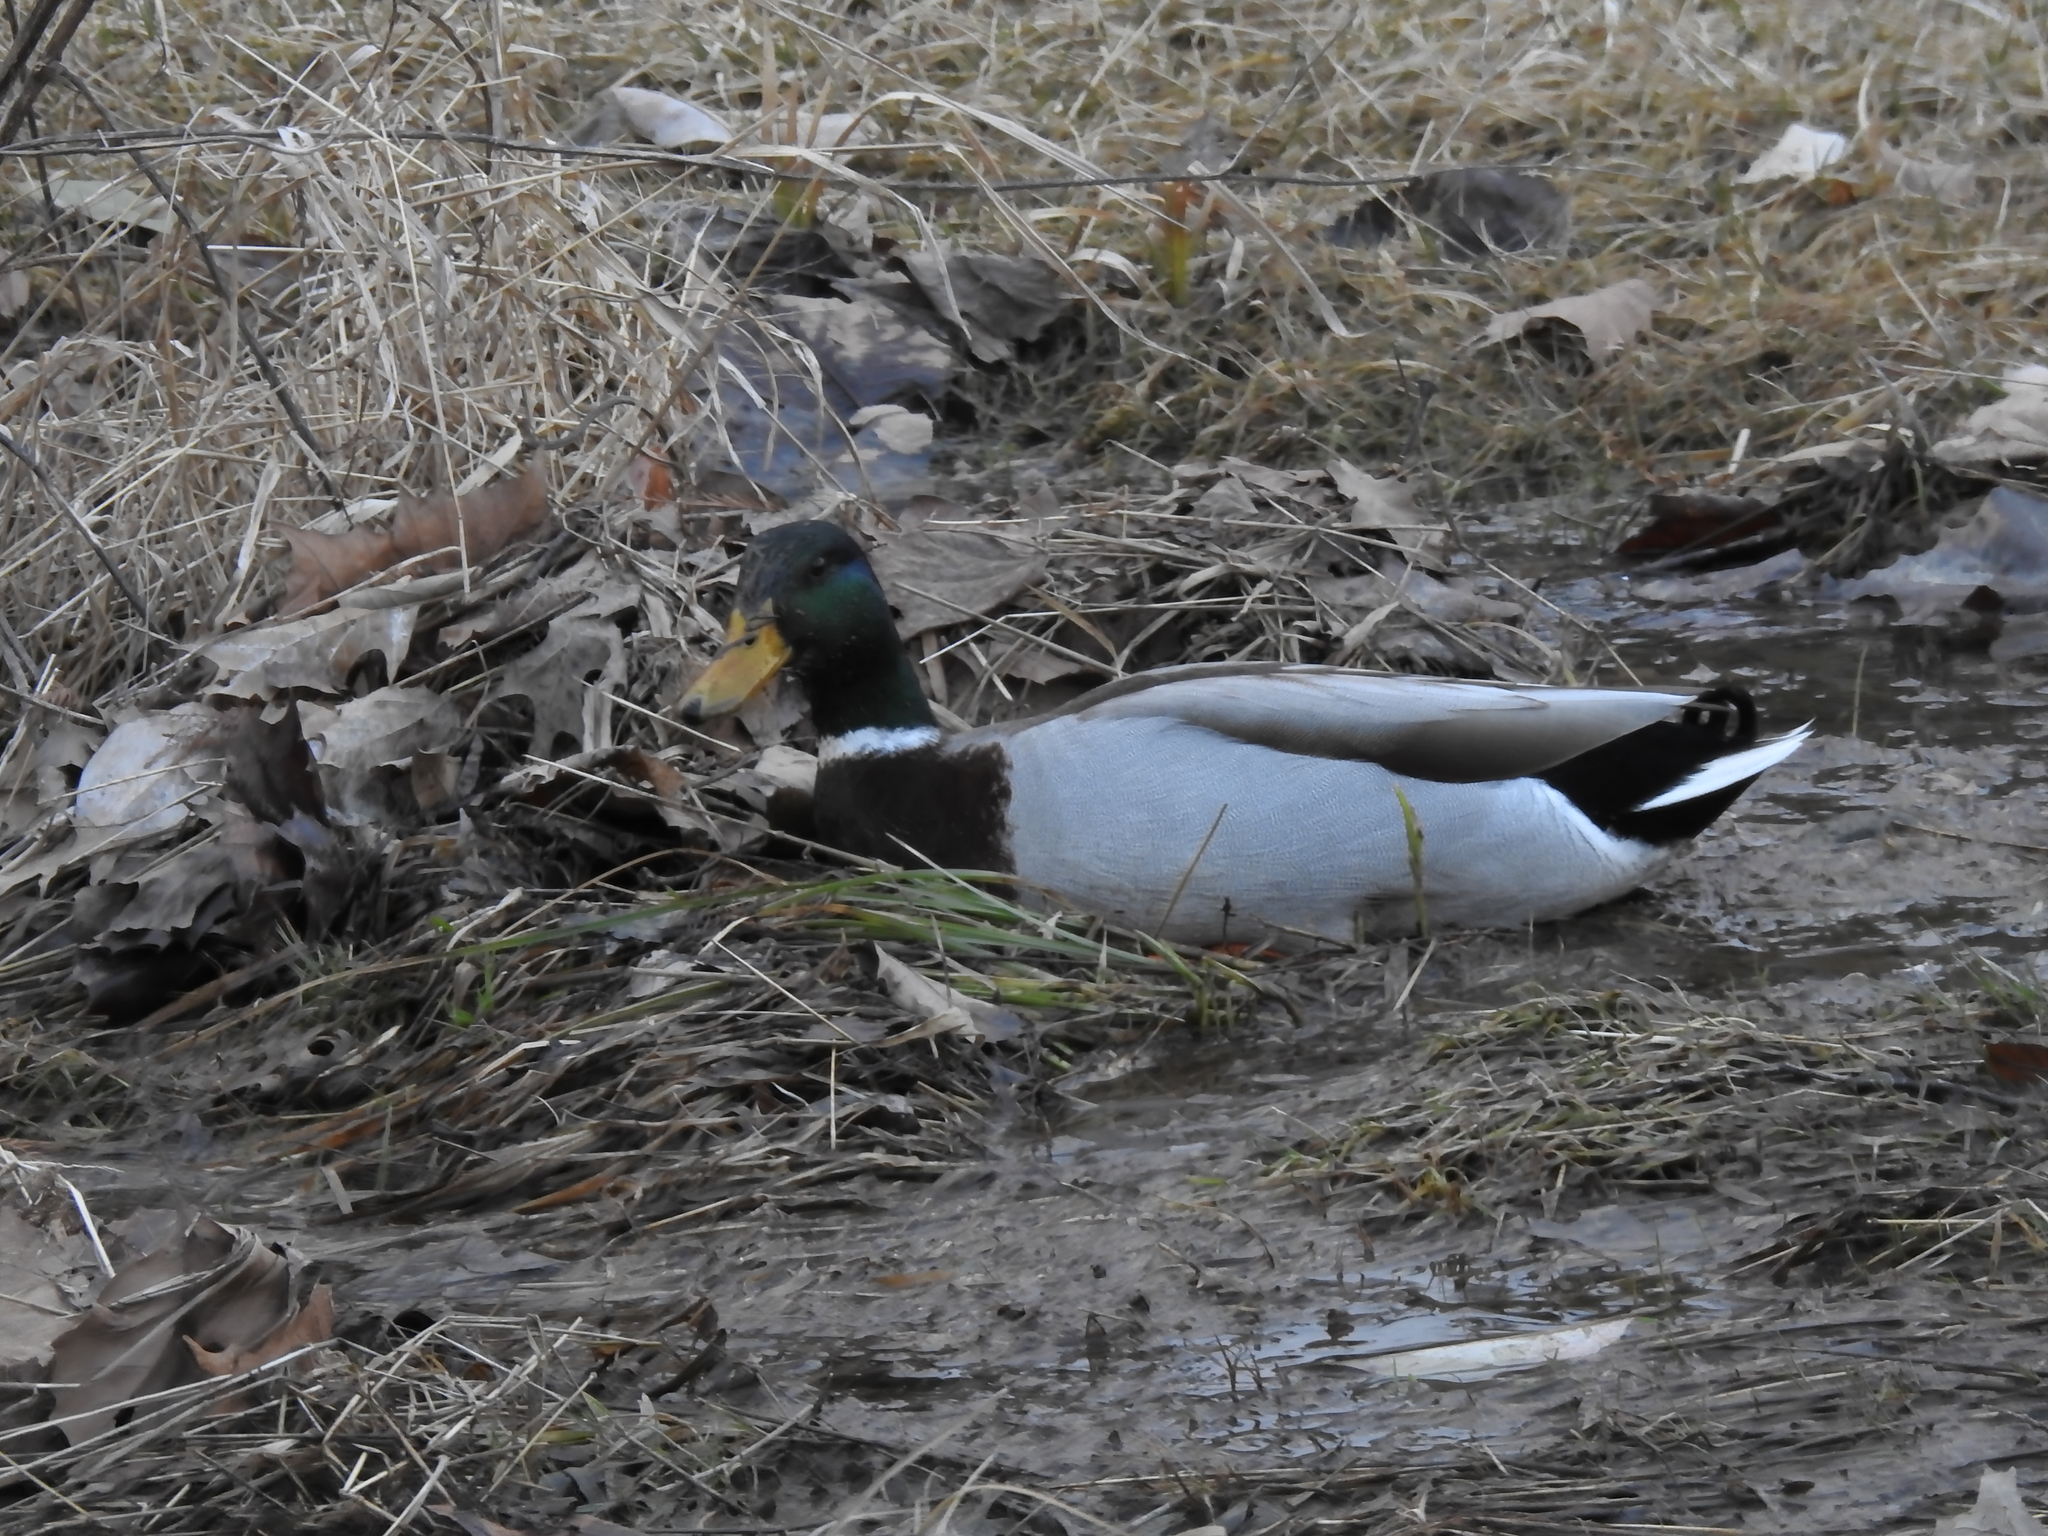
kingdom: Animalia
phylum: Chordata
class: Aves
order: Anseriformes
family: Anatidae
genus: Anas
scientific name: Anas platyrhynchos
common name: Mallard
